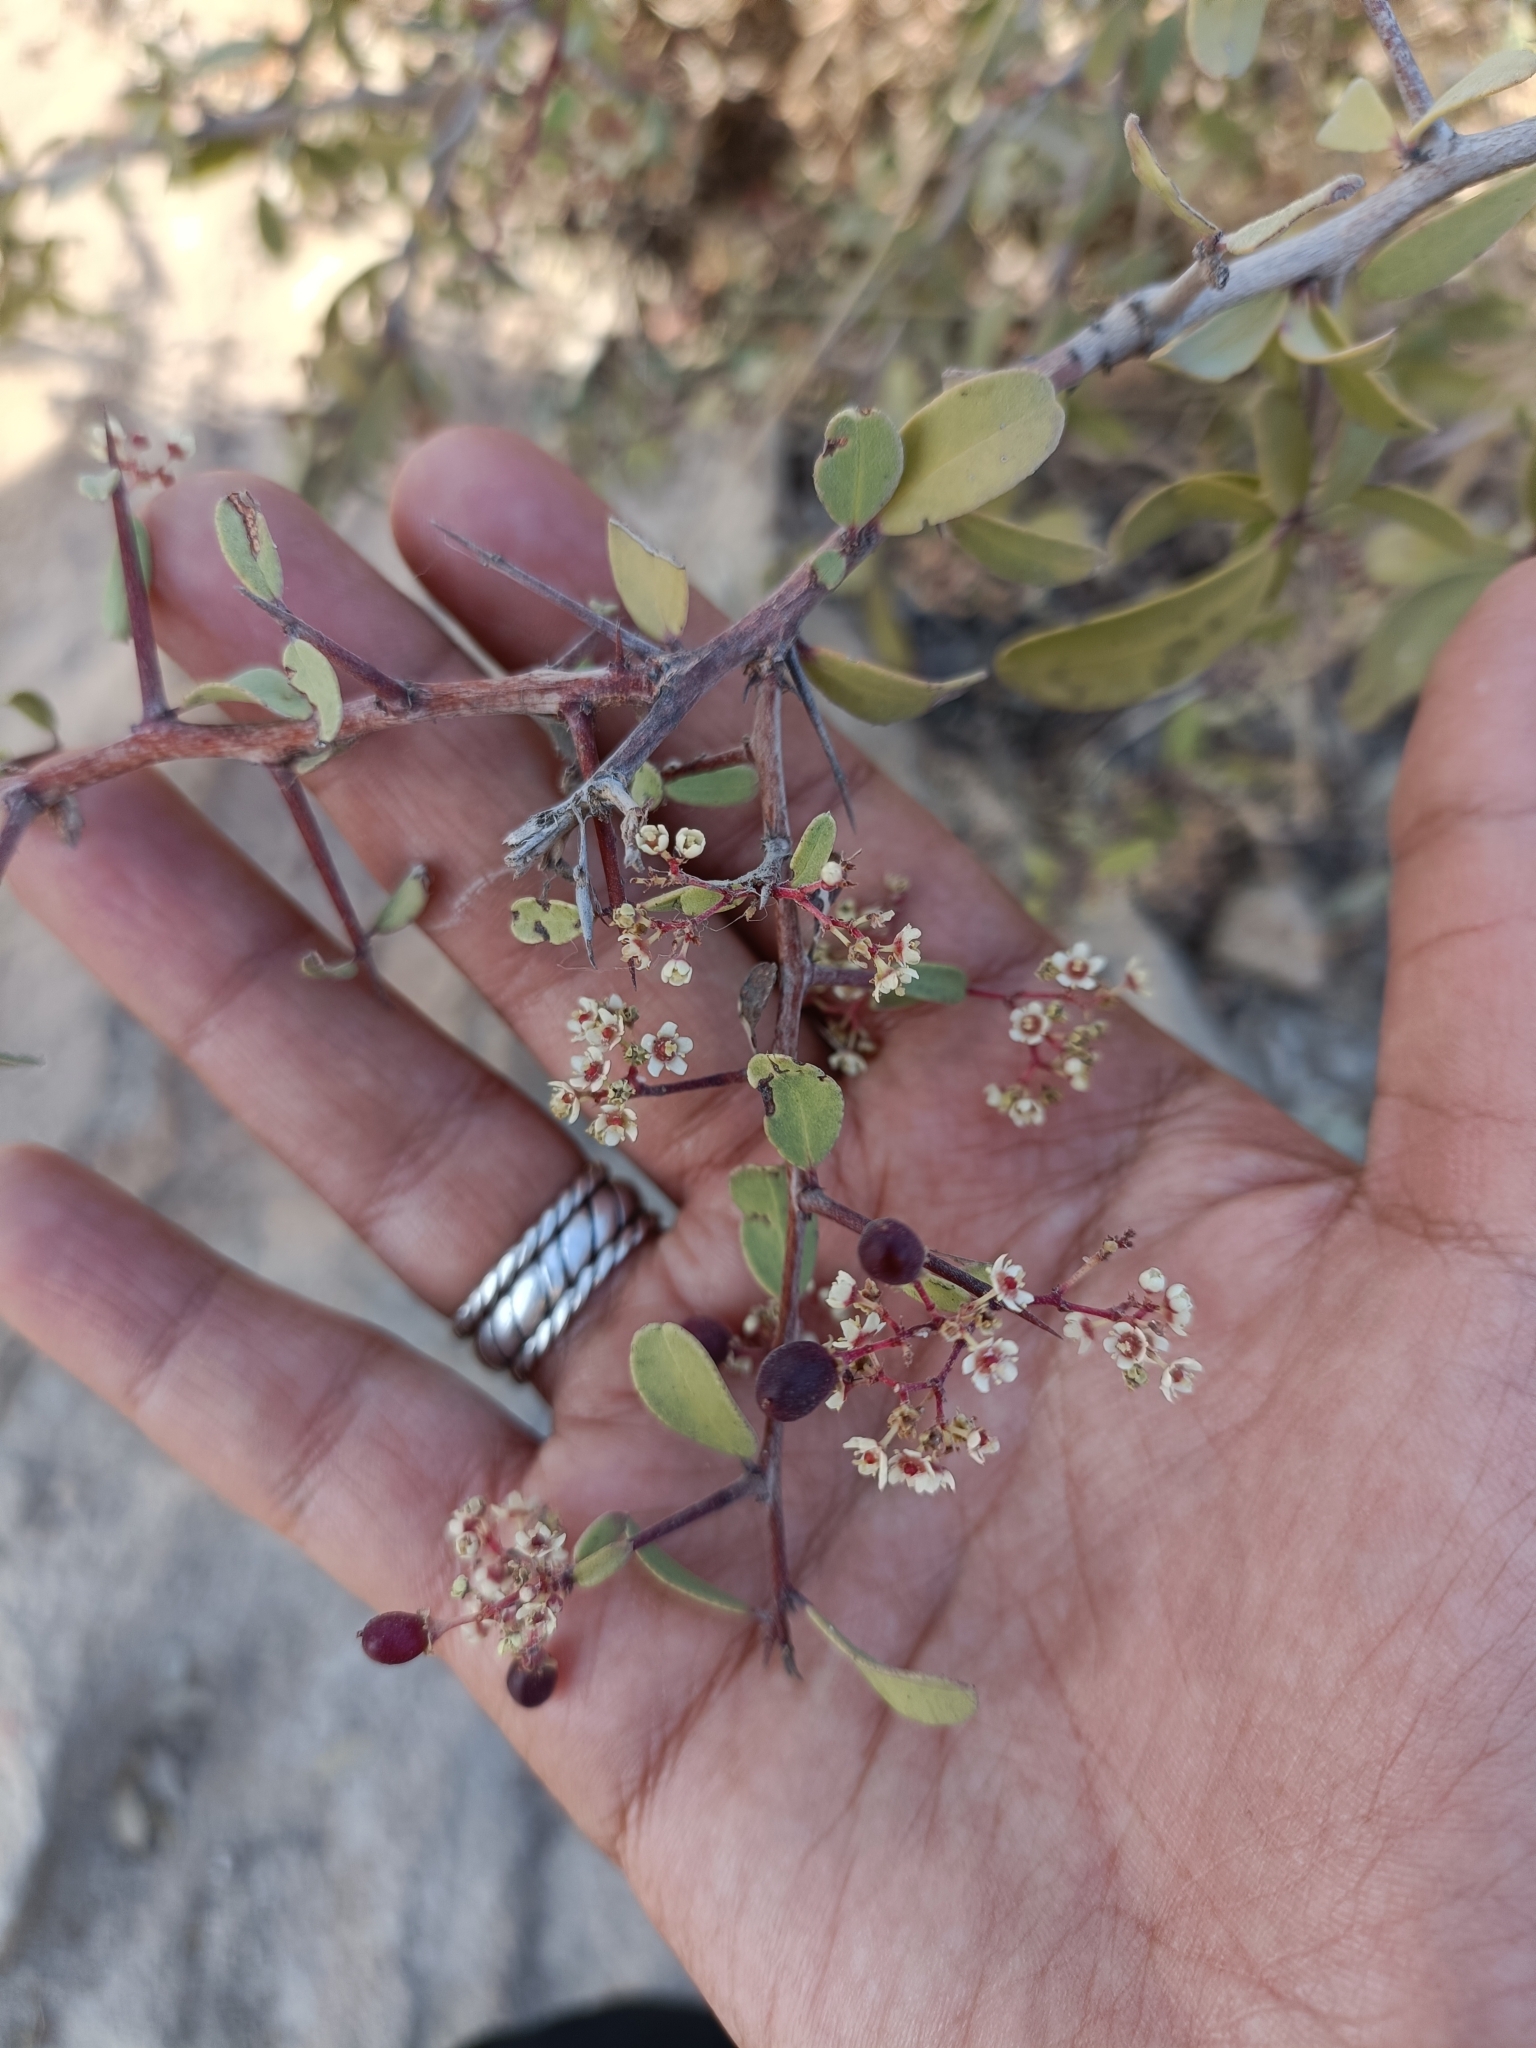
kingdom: Plantae
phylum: Tracheophyta
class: Magnoliopsida
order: Celastrales
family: Celastraceae
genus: Gymnosporia
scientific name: Gymnosporia senegalensis
